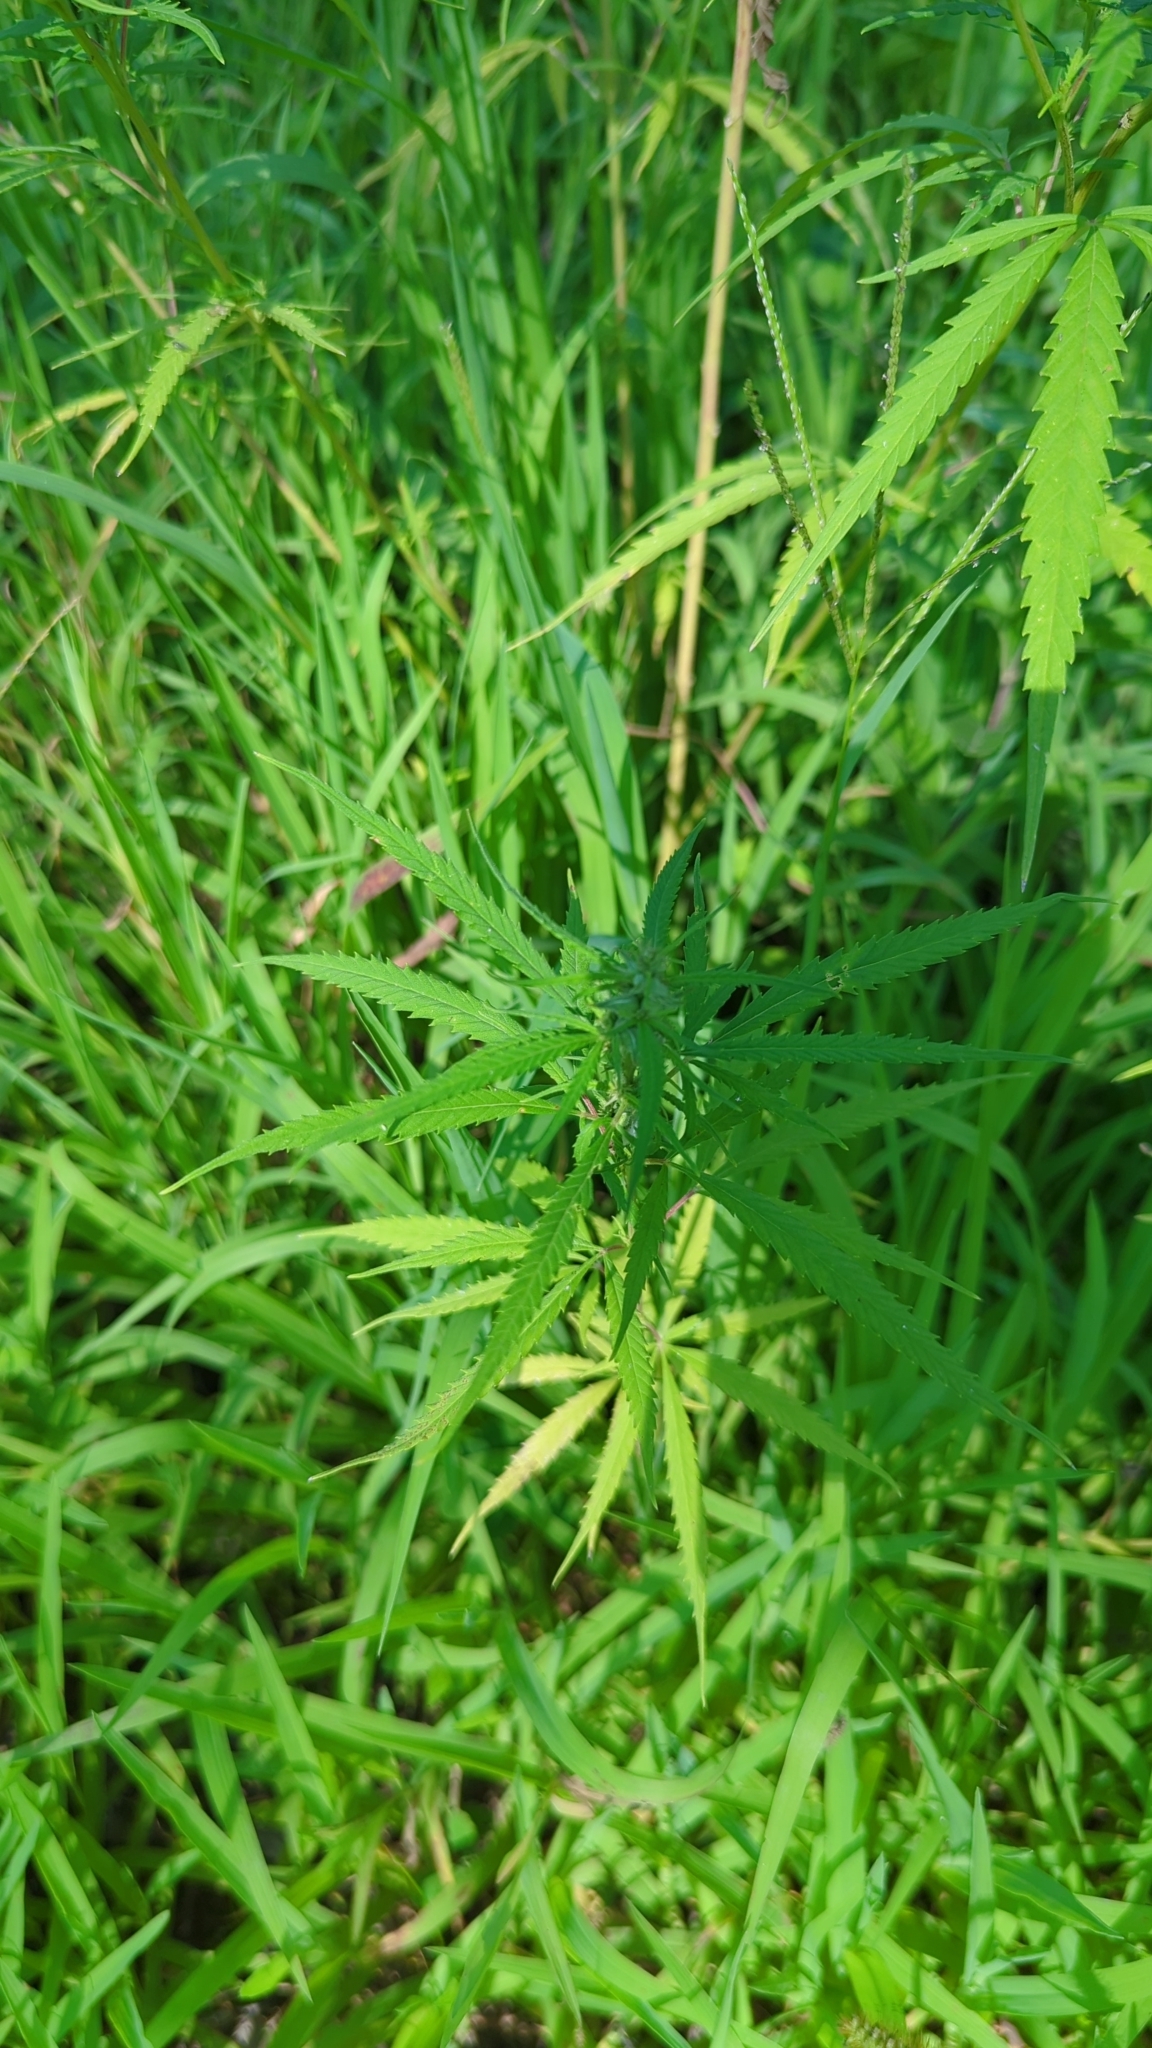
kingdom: Plantae
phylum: Tracheophyta
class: Magnoliopsida
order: Rosales
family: Cannabaceae
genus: Cannabis
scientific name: Cannabis sativa
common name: Hemp
